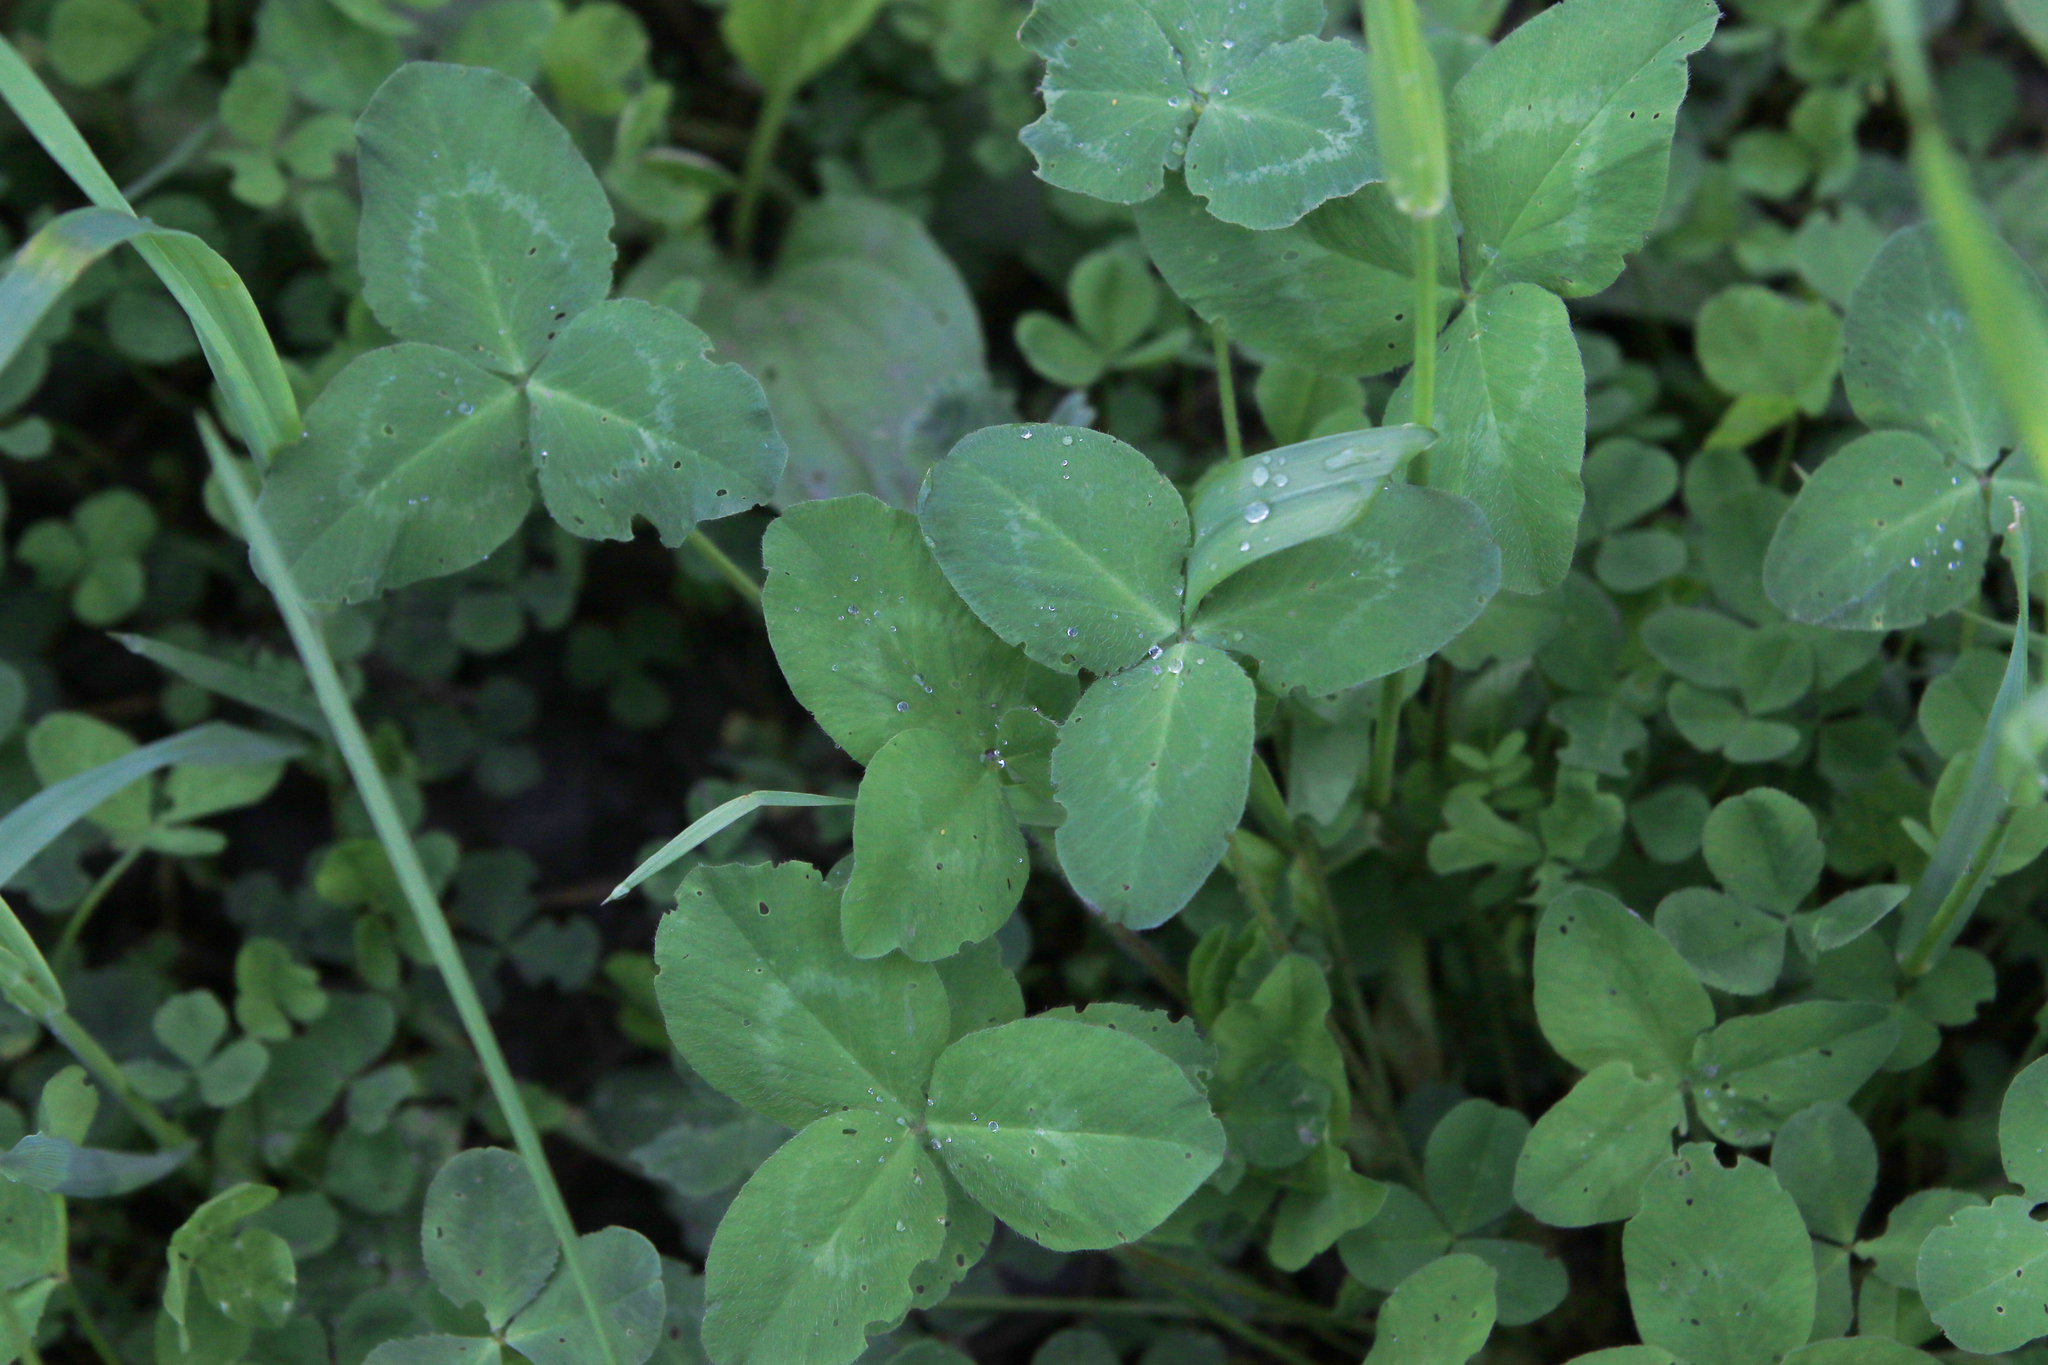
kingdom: Plantae
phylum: Tracheophyta
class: Magnoliopsida
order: Fabales
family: Fabaceae
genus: Trifolium
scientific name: Trifolium pratense
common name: Red clover
